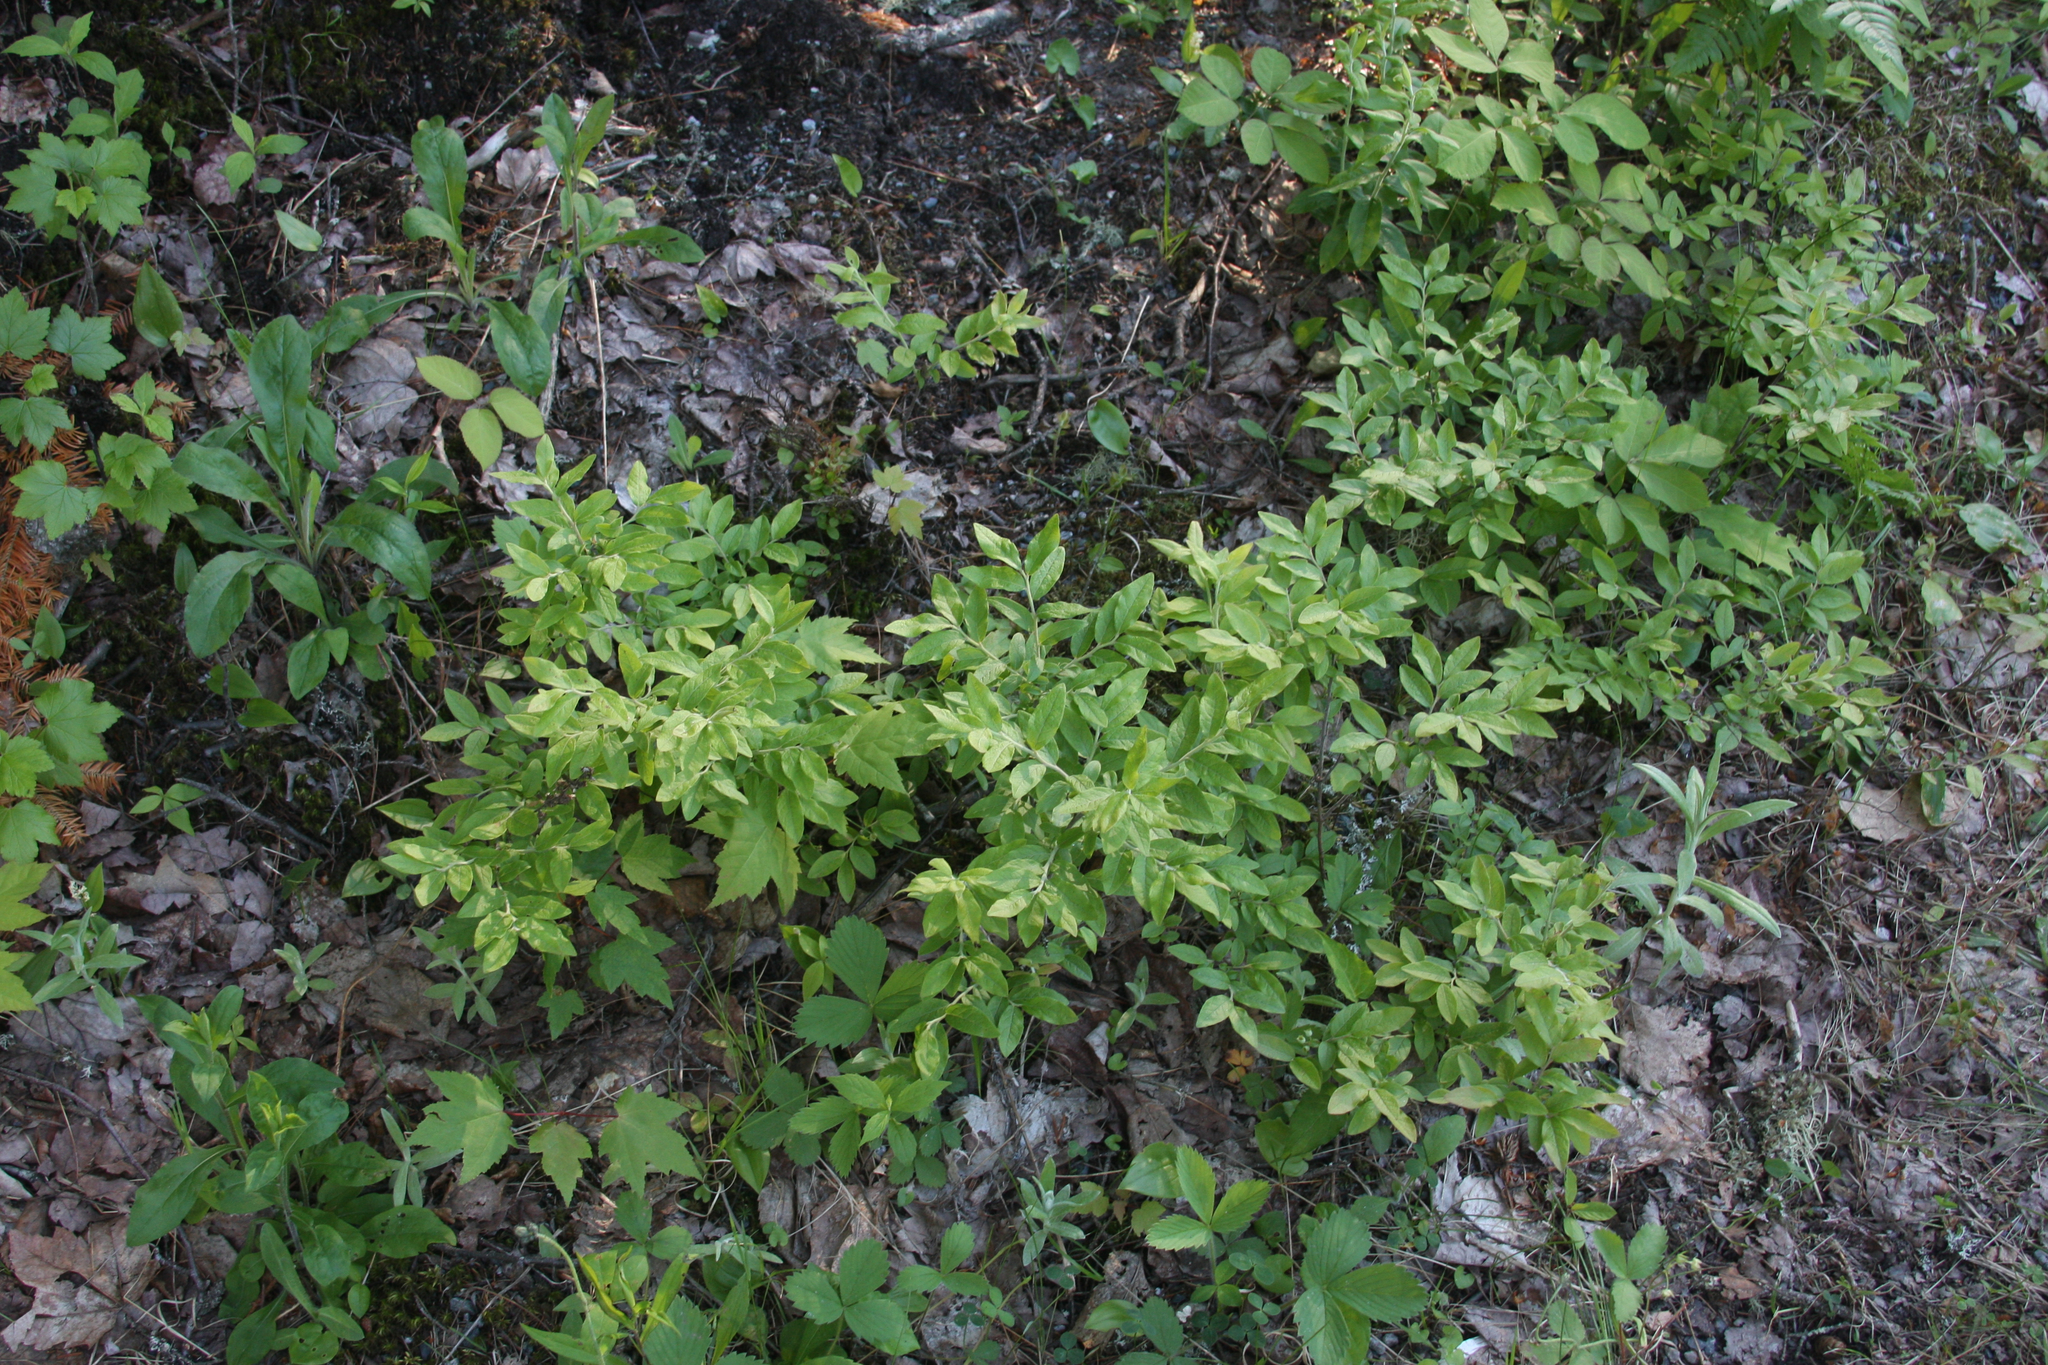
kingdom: Plantae
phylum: Tracheophyta
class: Magnoliopsida
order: Ericales
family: Ericaceae
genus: Vaccinium
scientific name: Vaccinium myrtilloides
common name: Canada blueberry
